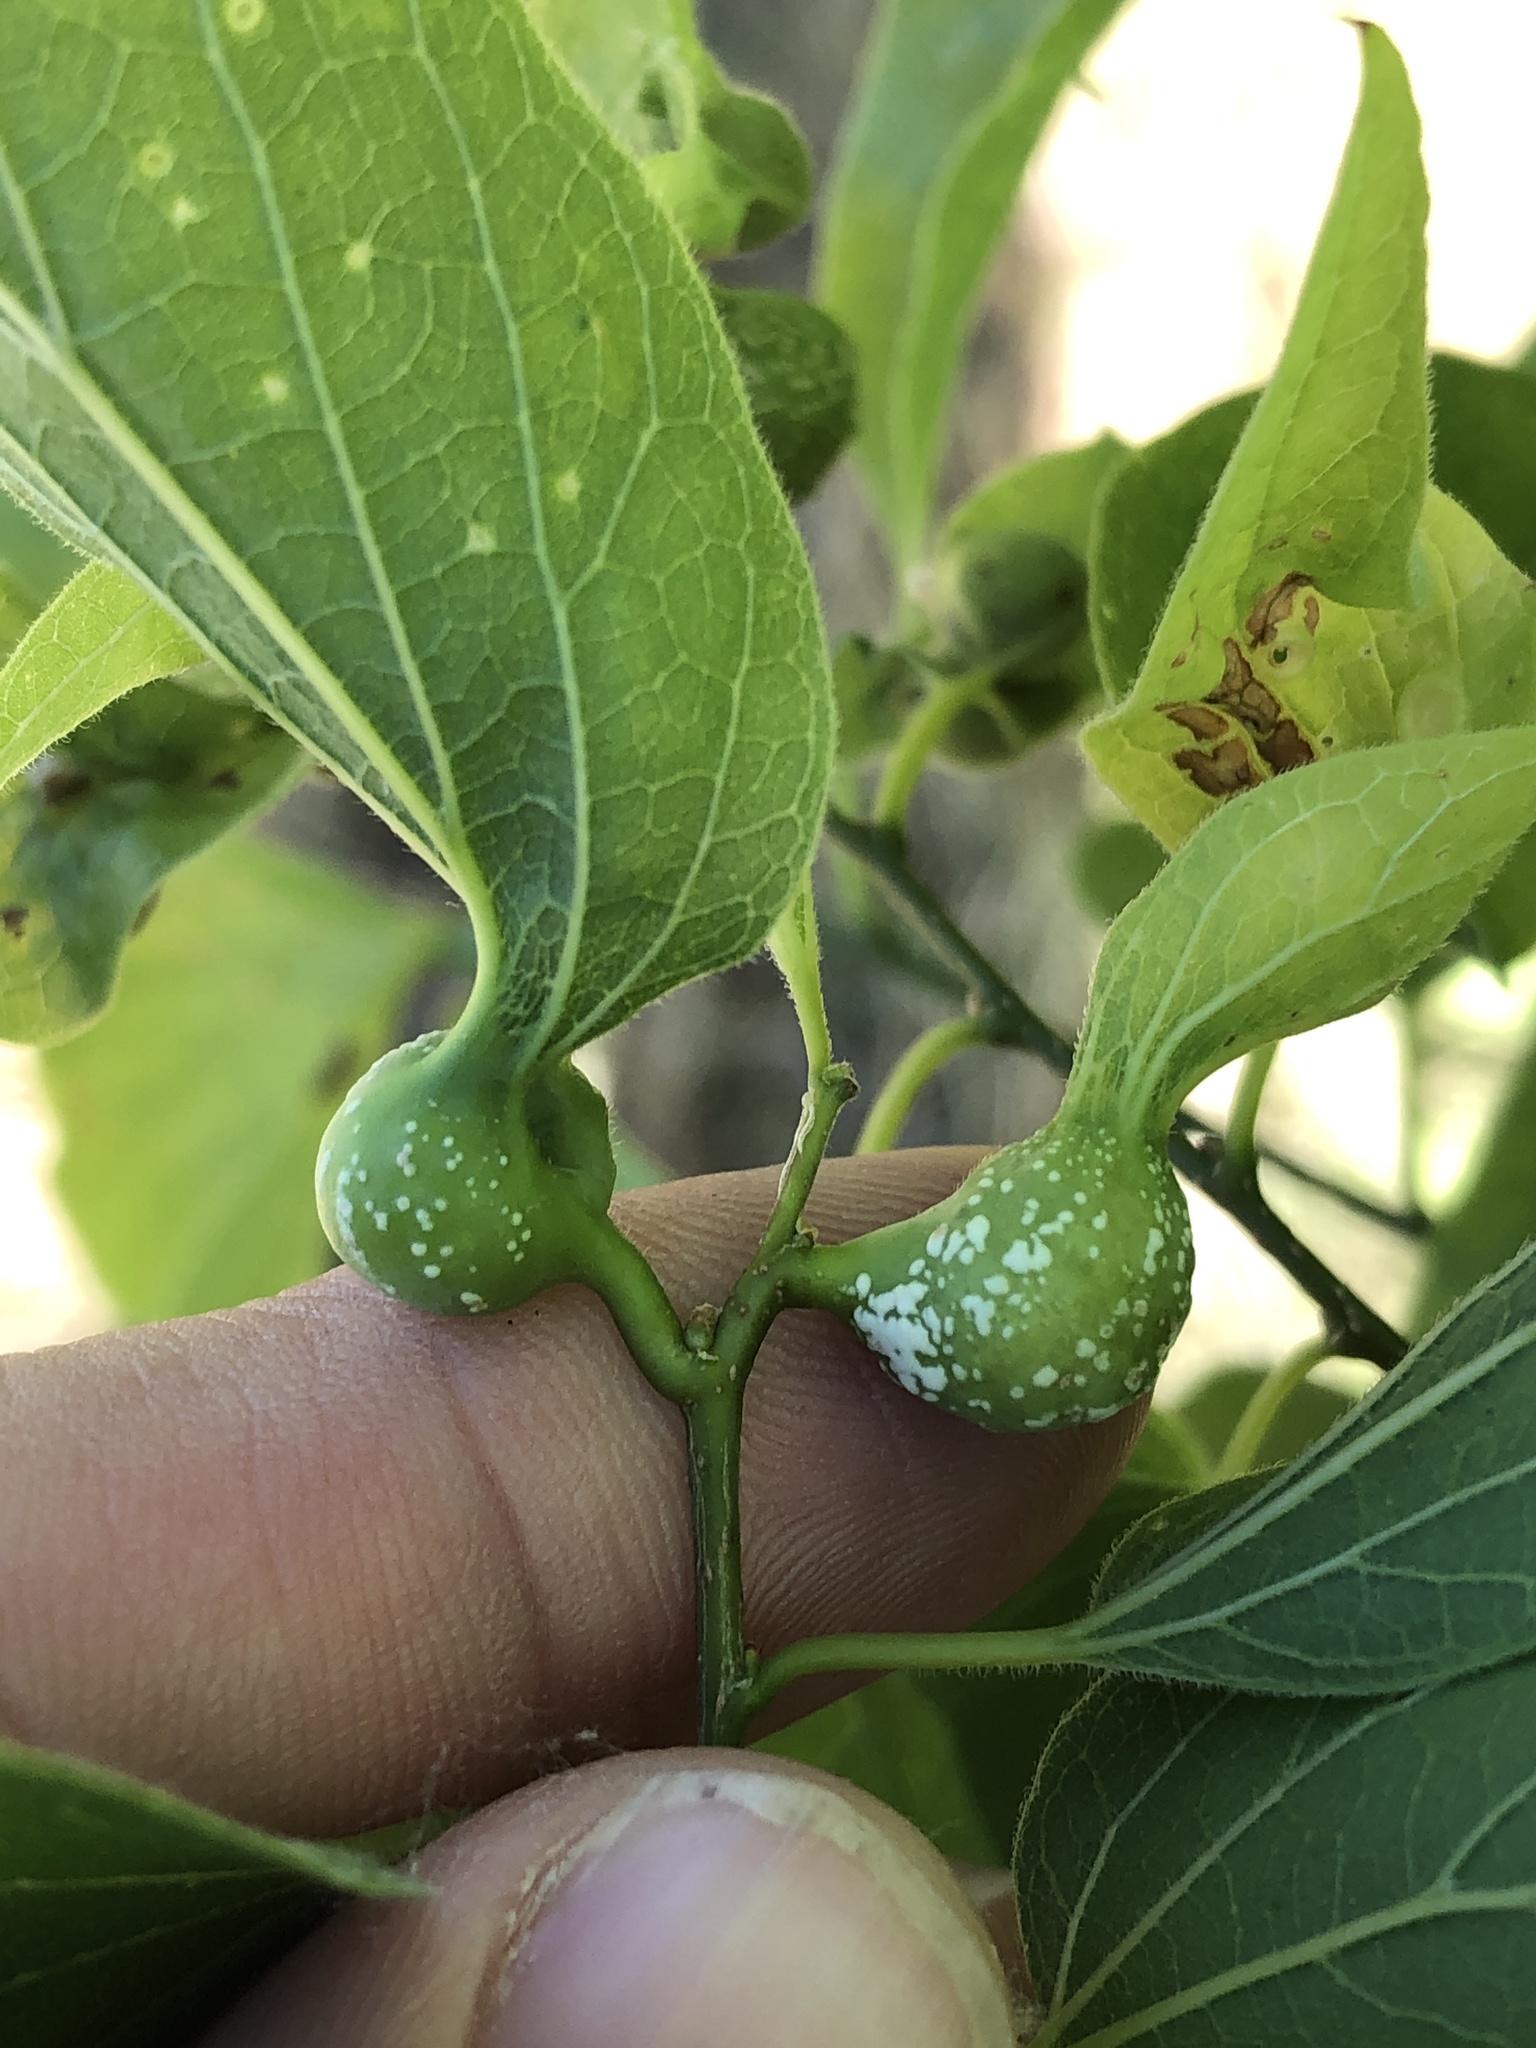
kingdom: Animalia
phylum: Arthropoda
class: Insecta
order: Hemiptera
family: Aphalaridae
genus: Pachypsylla
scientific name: Pachypsylla venusta
